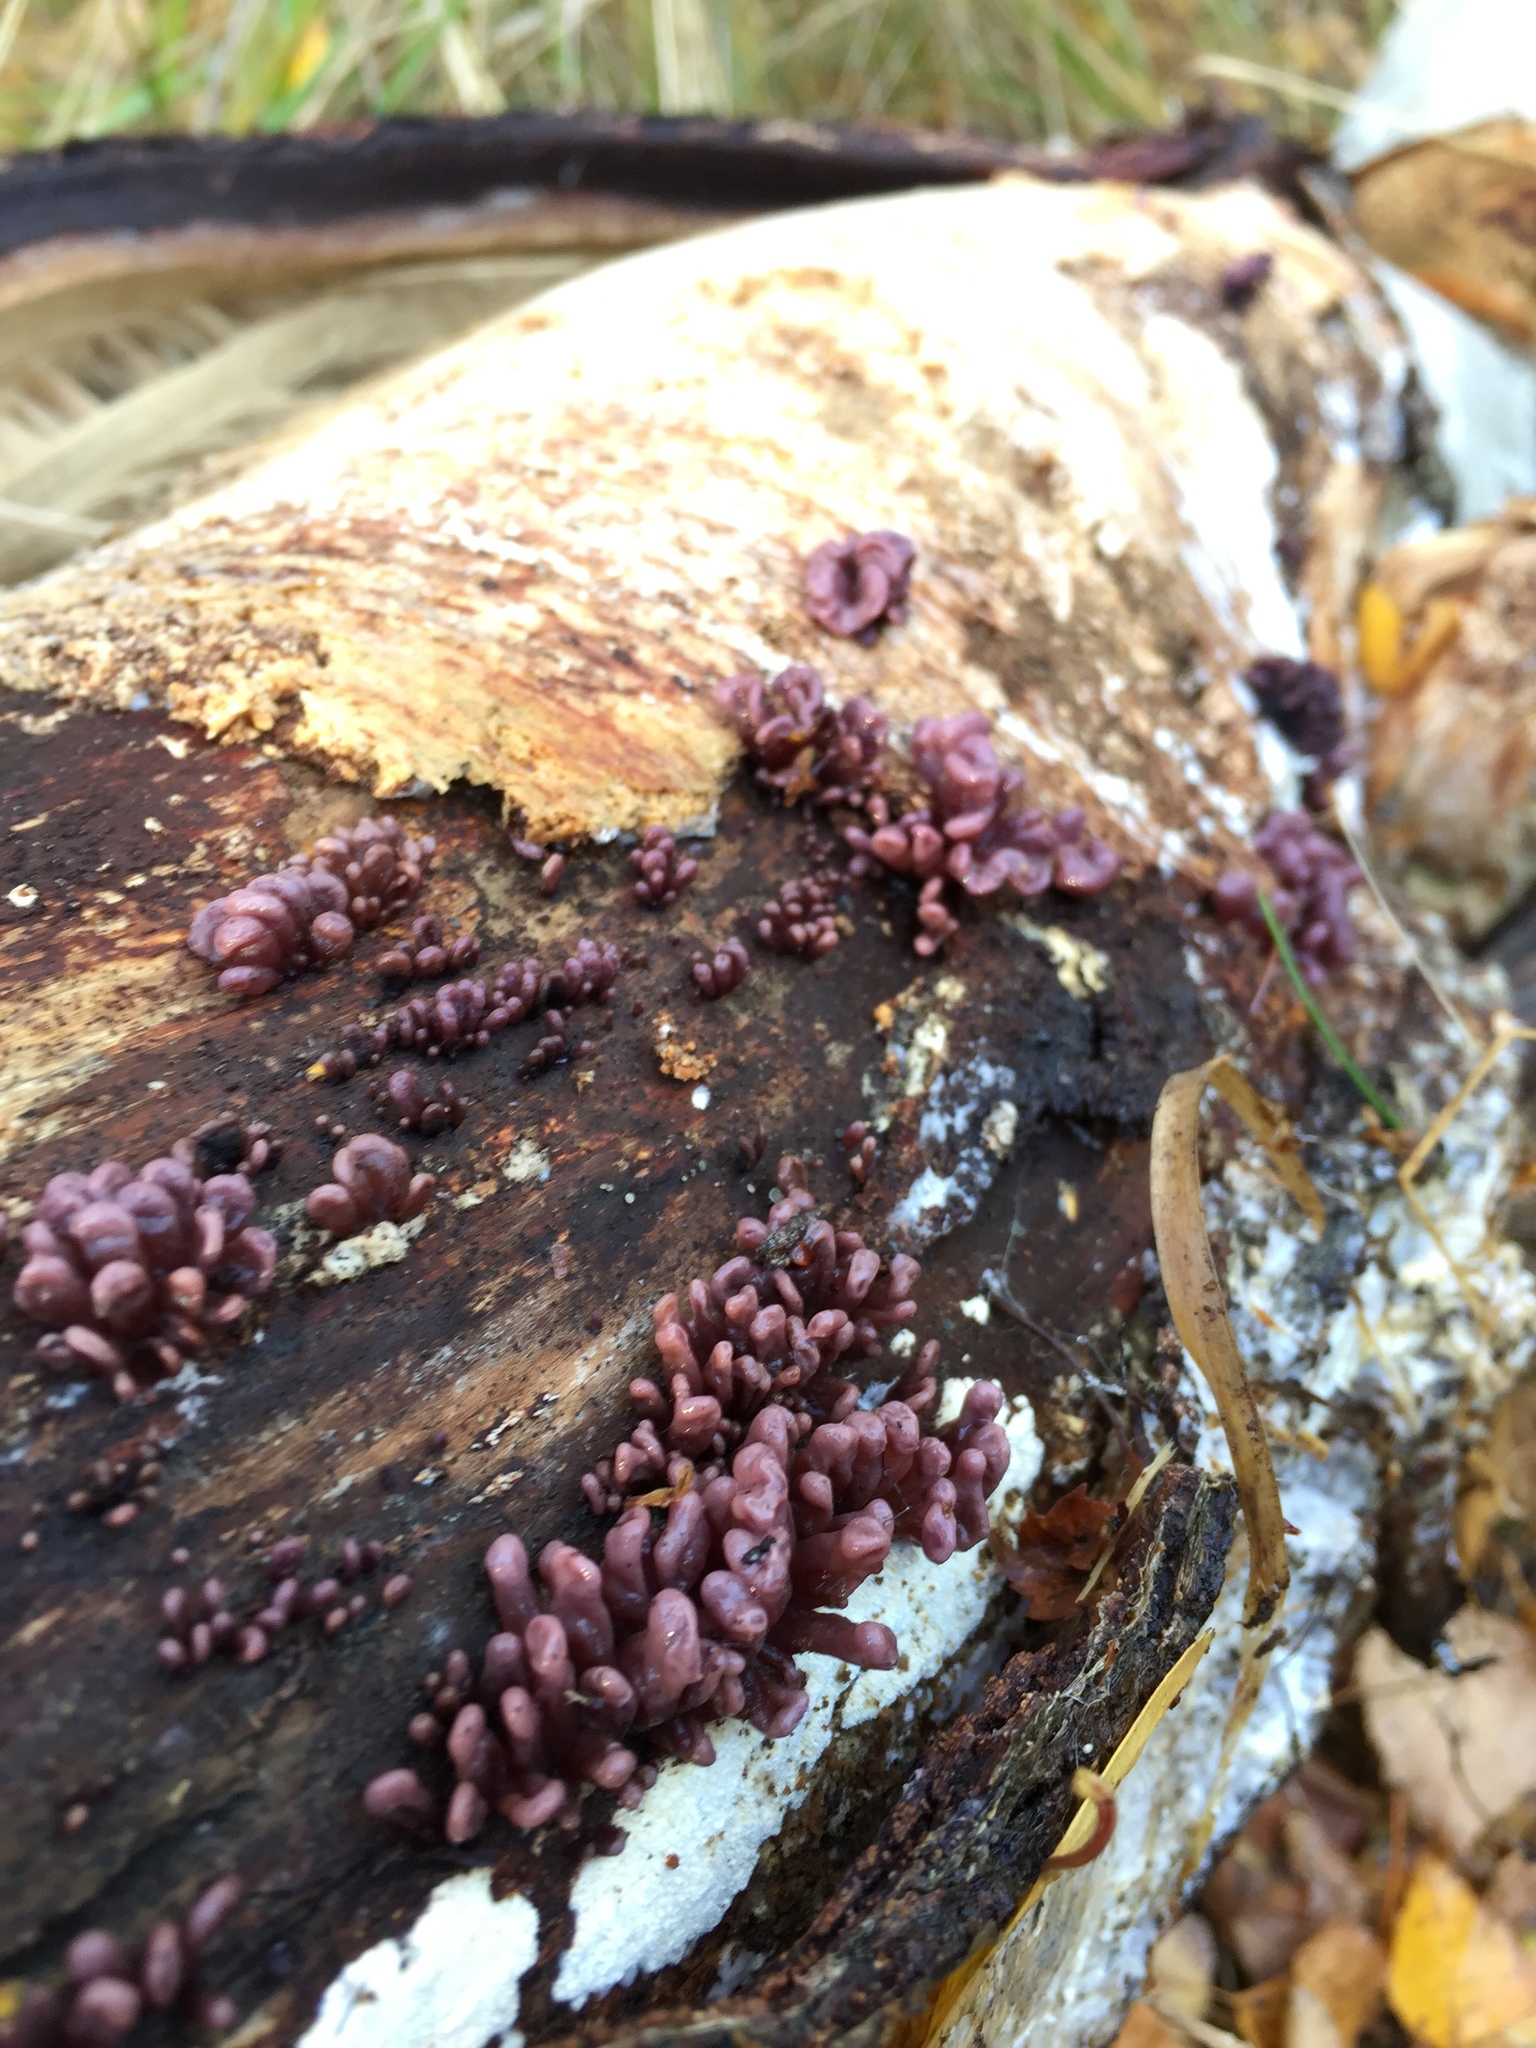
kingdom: Fungi
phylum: Ascomycota
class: Leotiomycetes
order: Helotiales
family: Gelatinodiscaceae
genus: Ascocoryne
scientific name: Ascocoryne sarcoides
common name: Purple jellydisc
